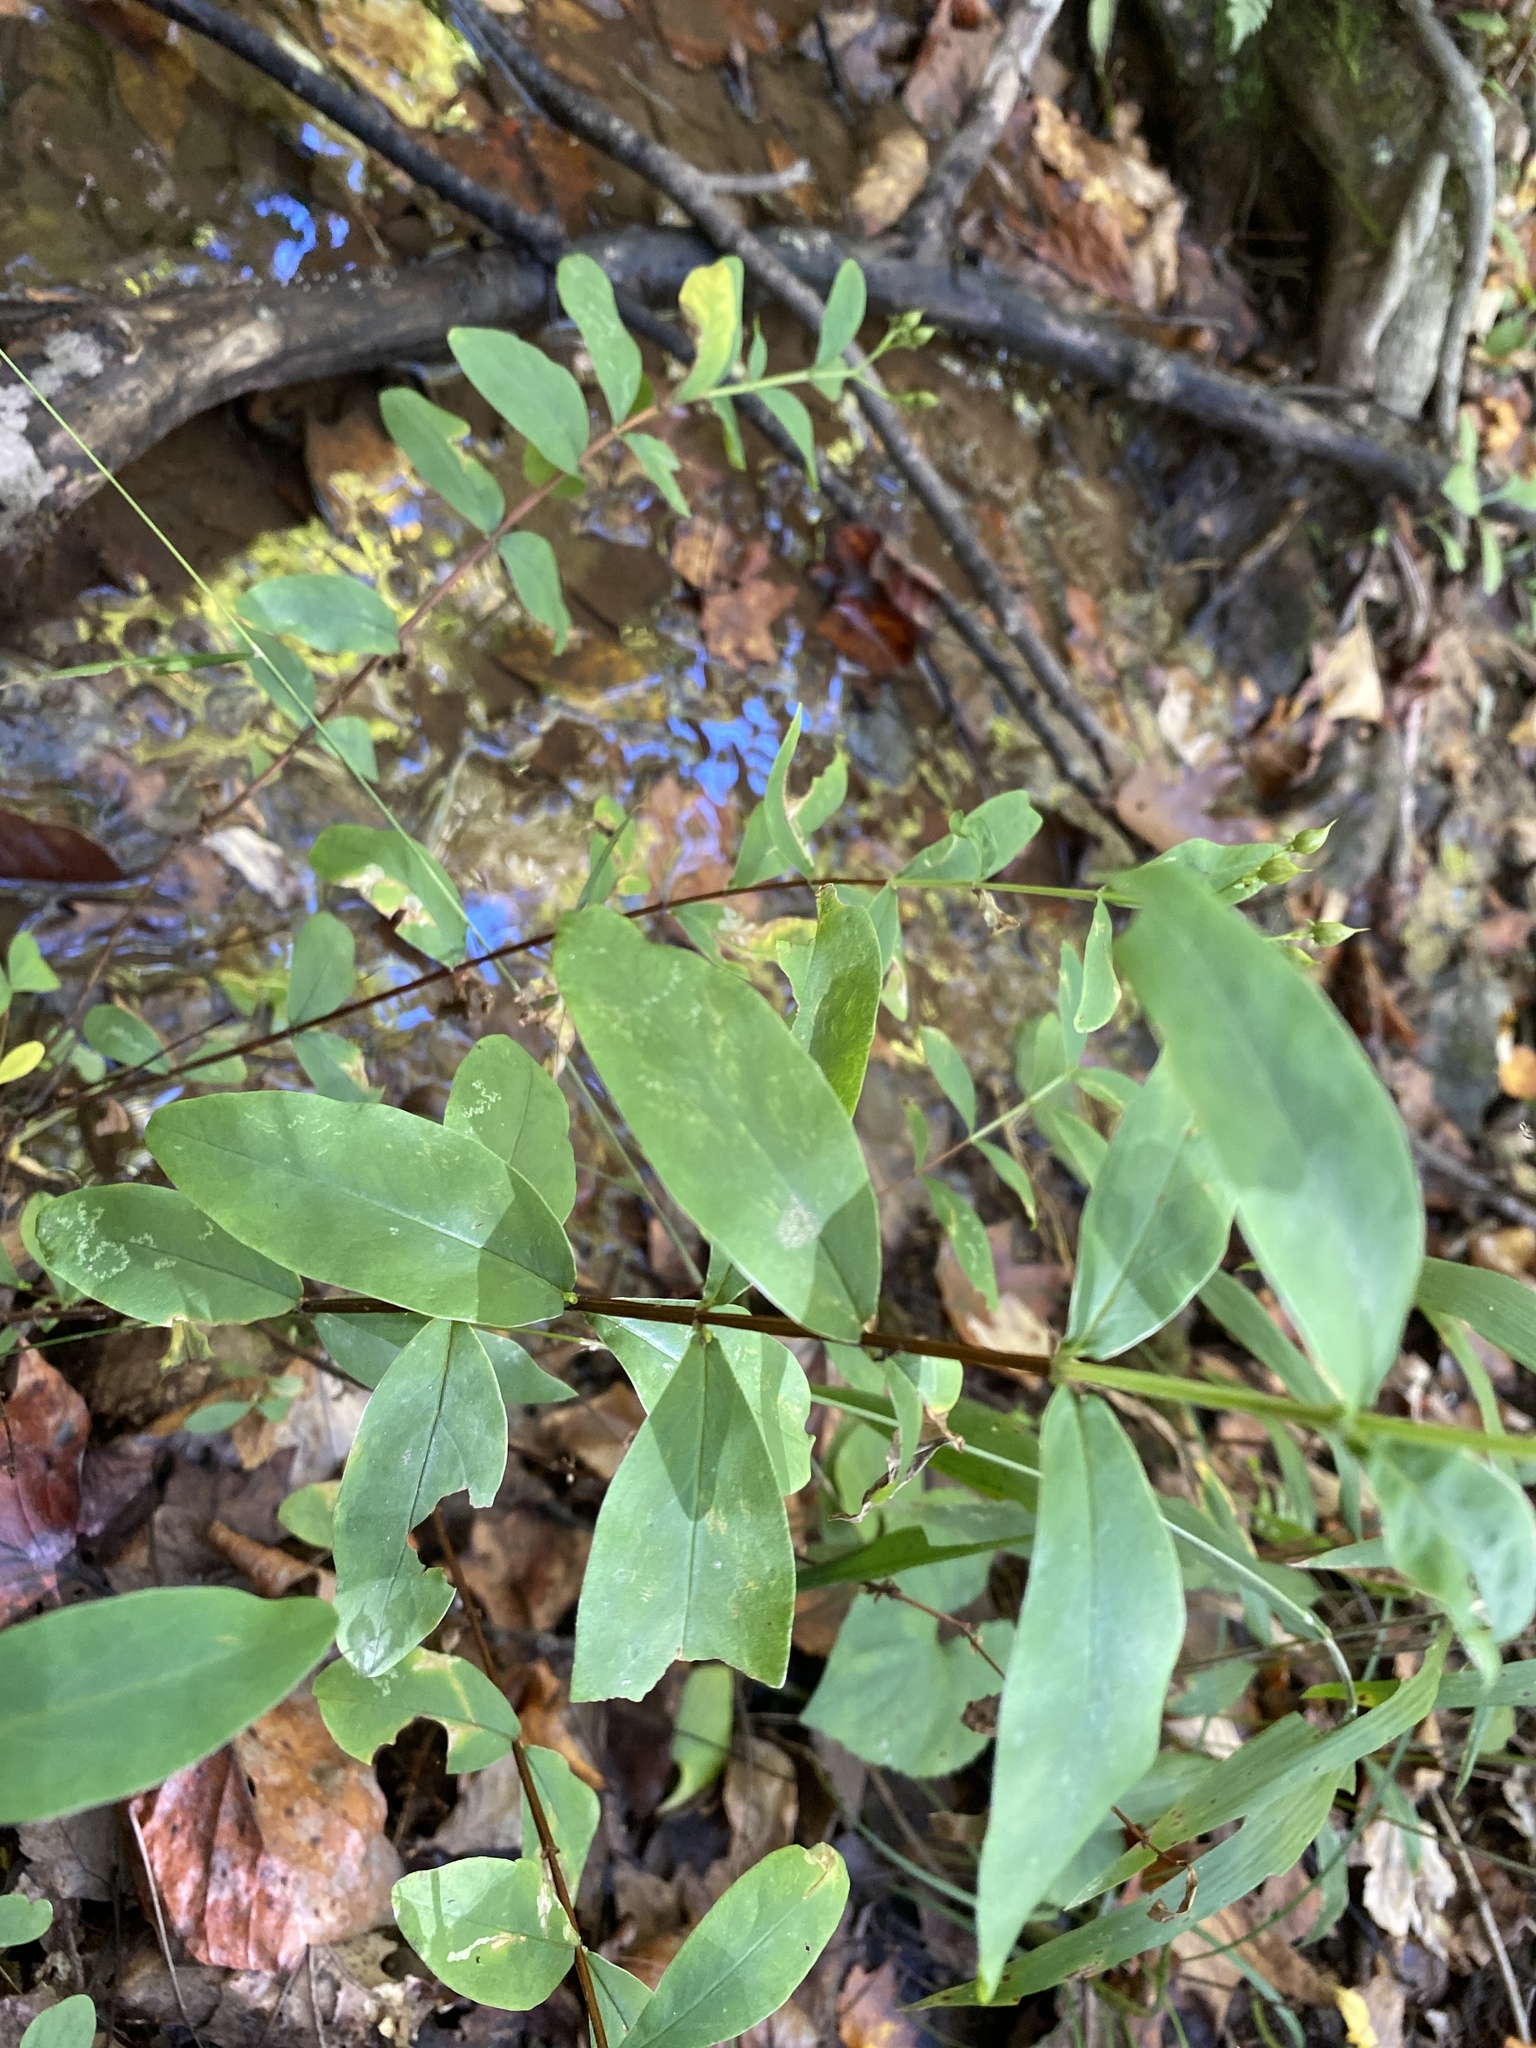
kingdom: Plantae
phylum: Tracheophyta
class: Magnoliopsida
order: Malpighiales
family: Hypericaceae
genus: Hypericum
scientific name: Hypericum perforatum
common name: Common st. johnswort
